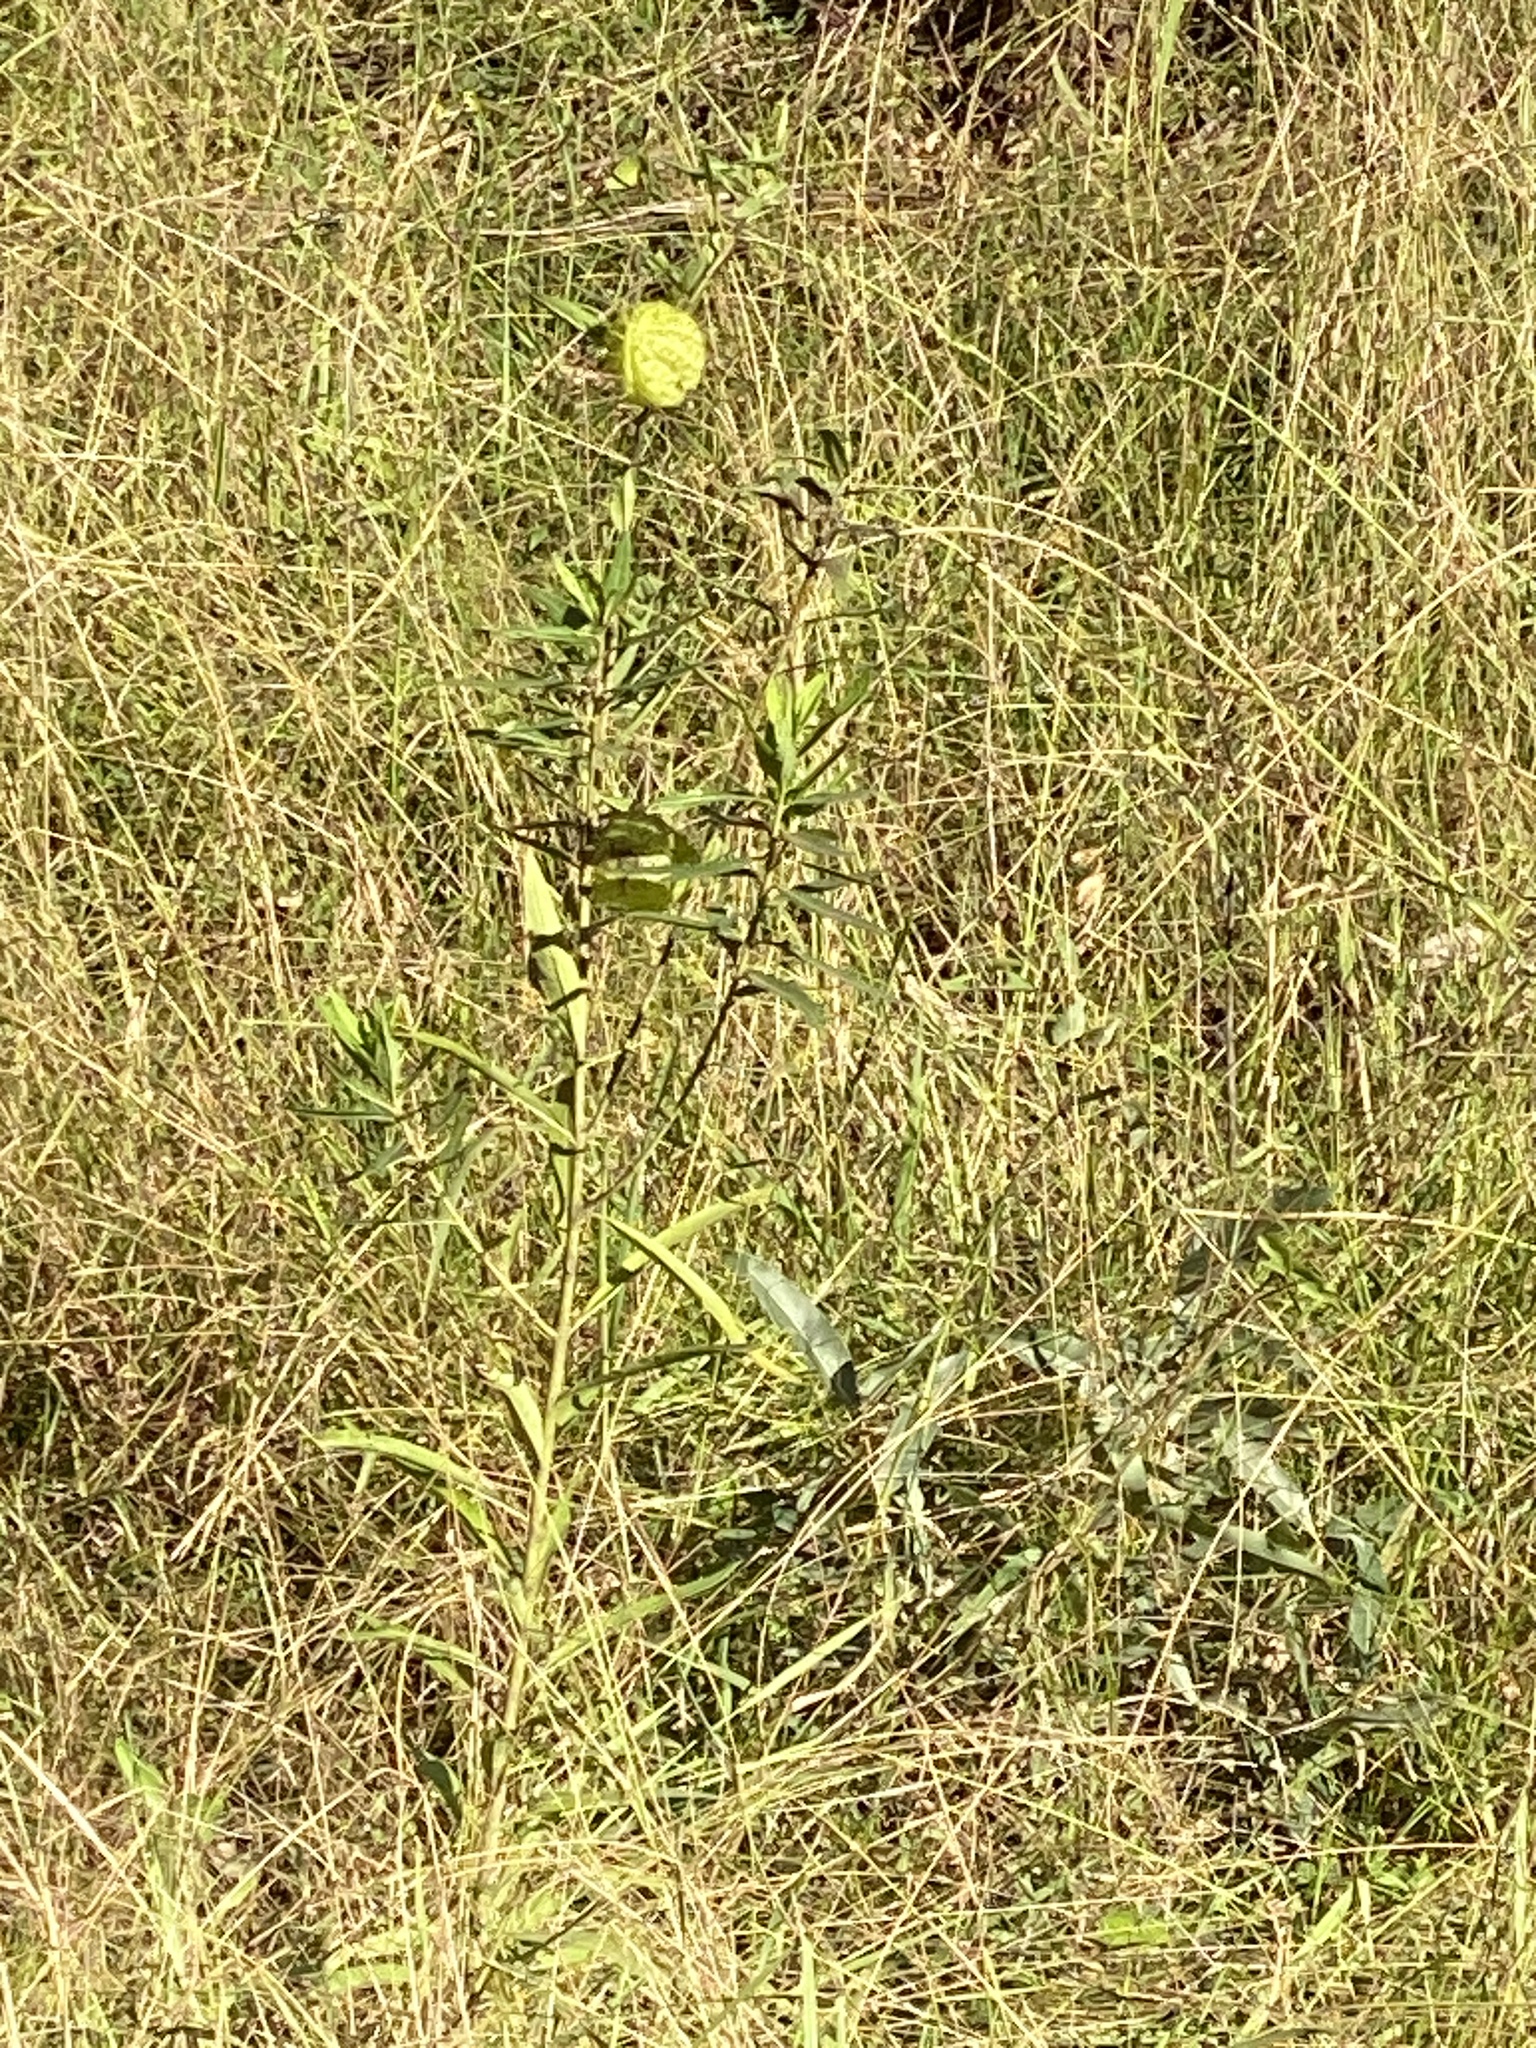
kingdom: Plantae
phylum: Tracheophyta
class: Magnoliopsida
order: Gentianales
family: Apocynaceae
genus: Gomphocarpus
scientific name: Gomphocarpus physocarpus
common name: Balloon cotton bush
